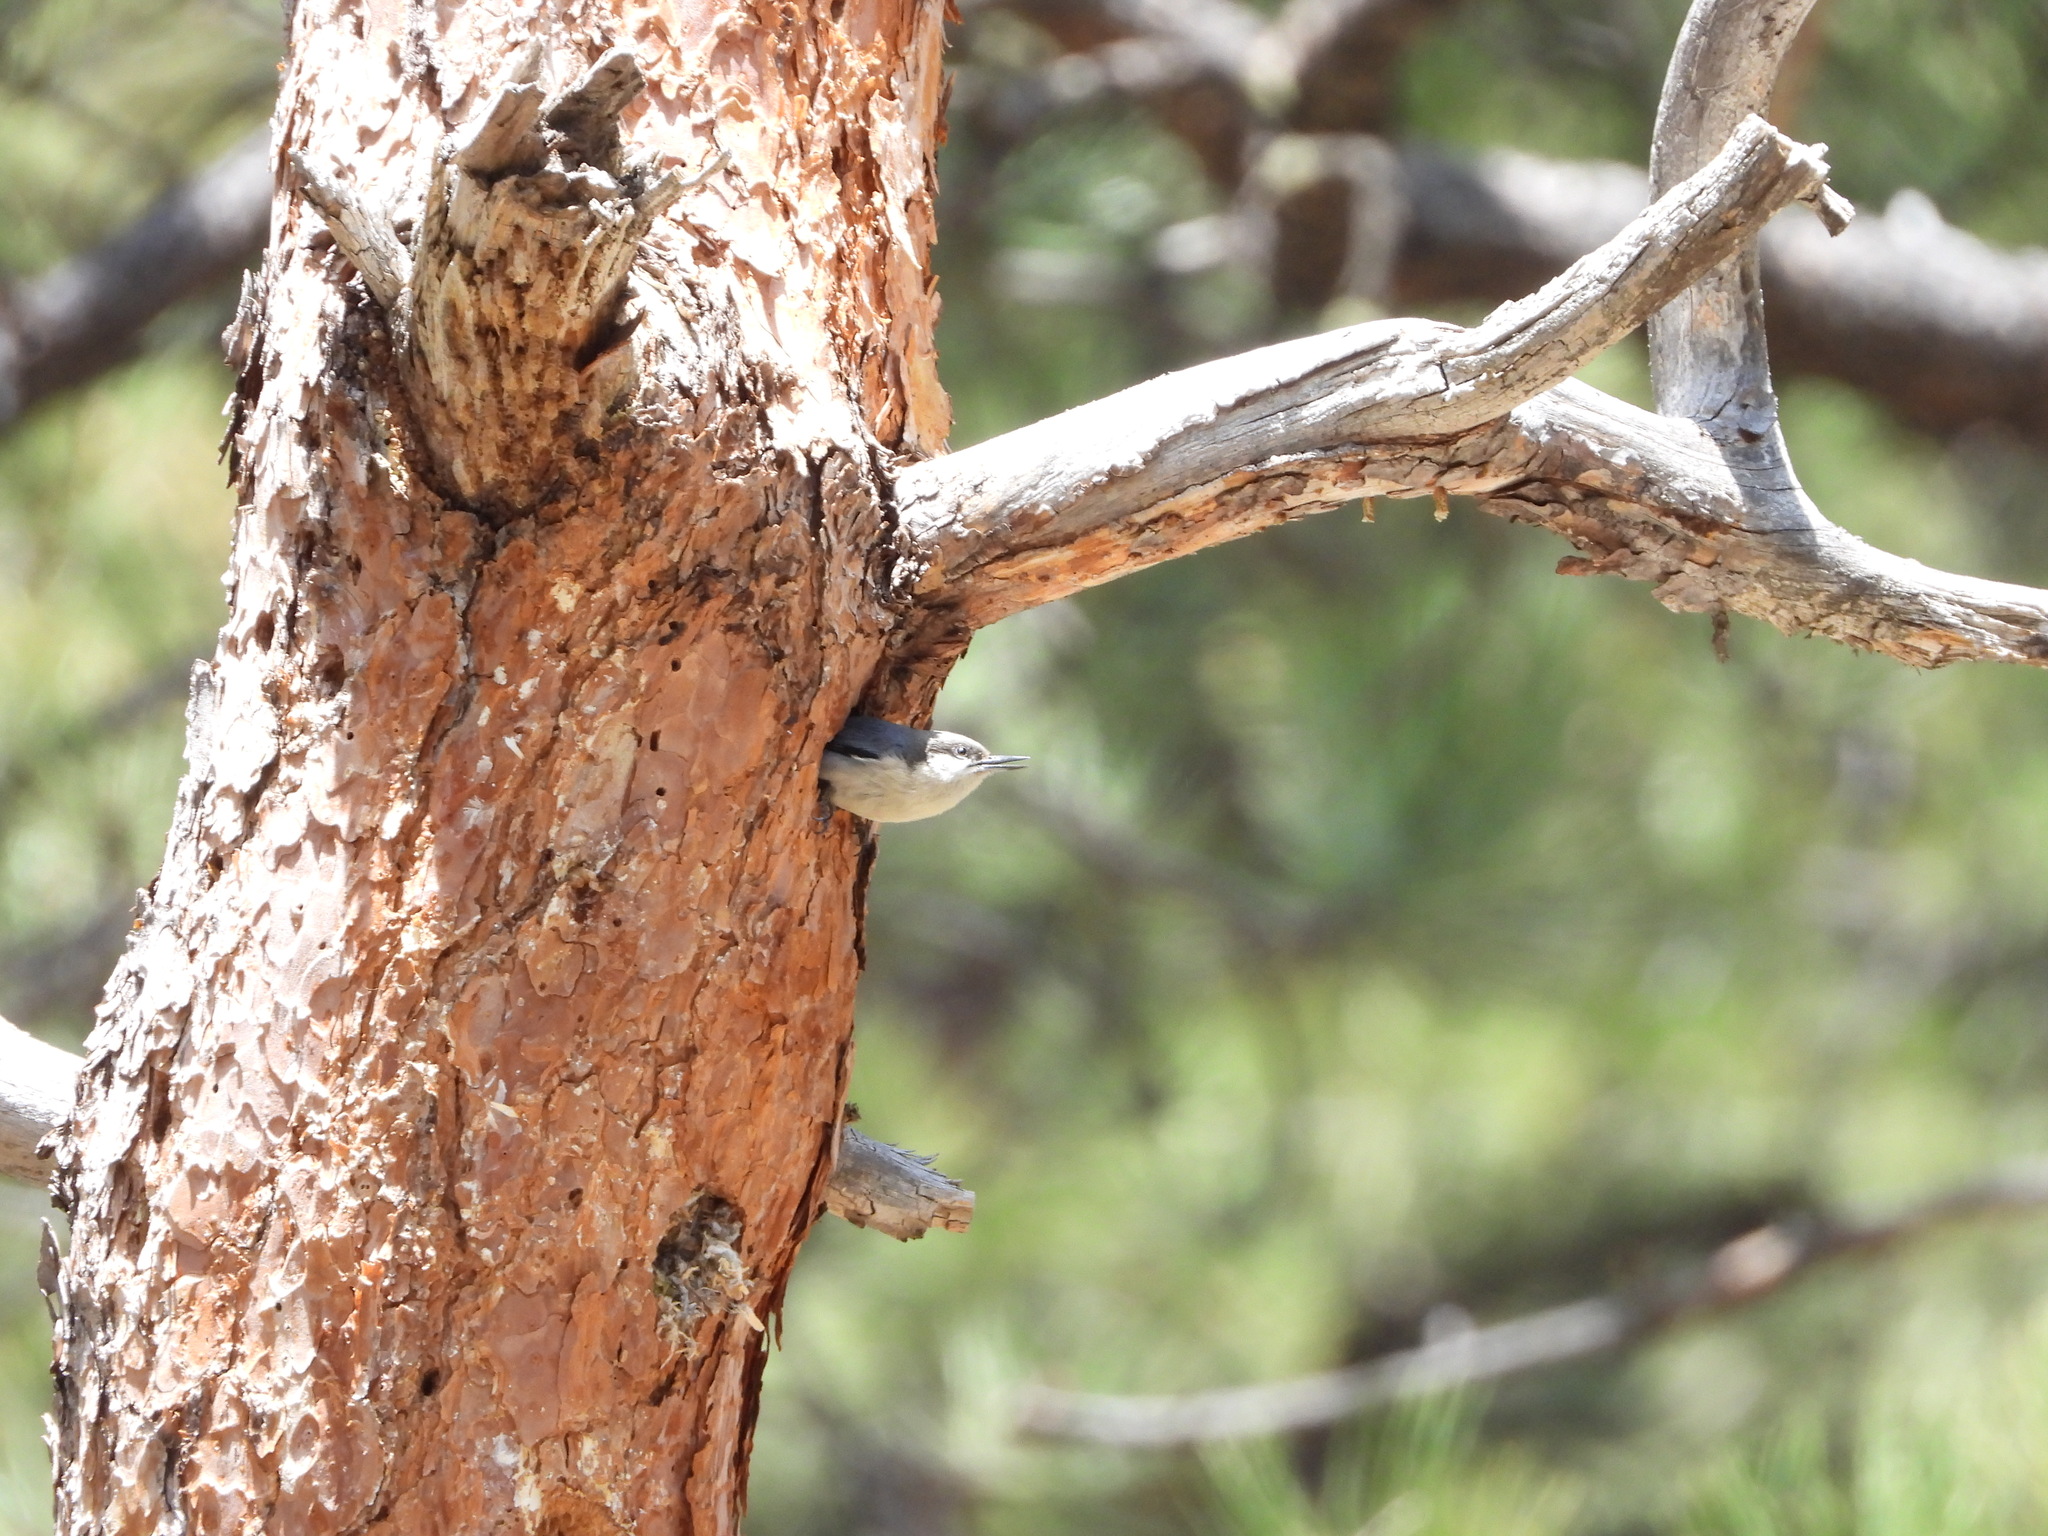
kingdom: Animalia
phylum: Chordata
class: Aves
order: Passeriformes
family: Sittidae
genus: Sitta
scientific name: Sitta pygmaea
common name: Pygmy nuthatch
